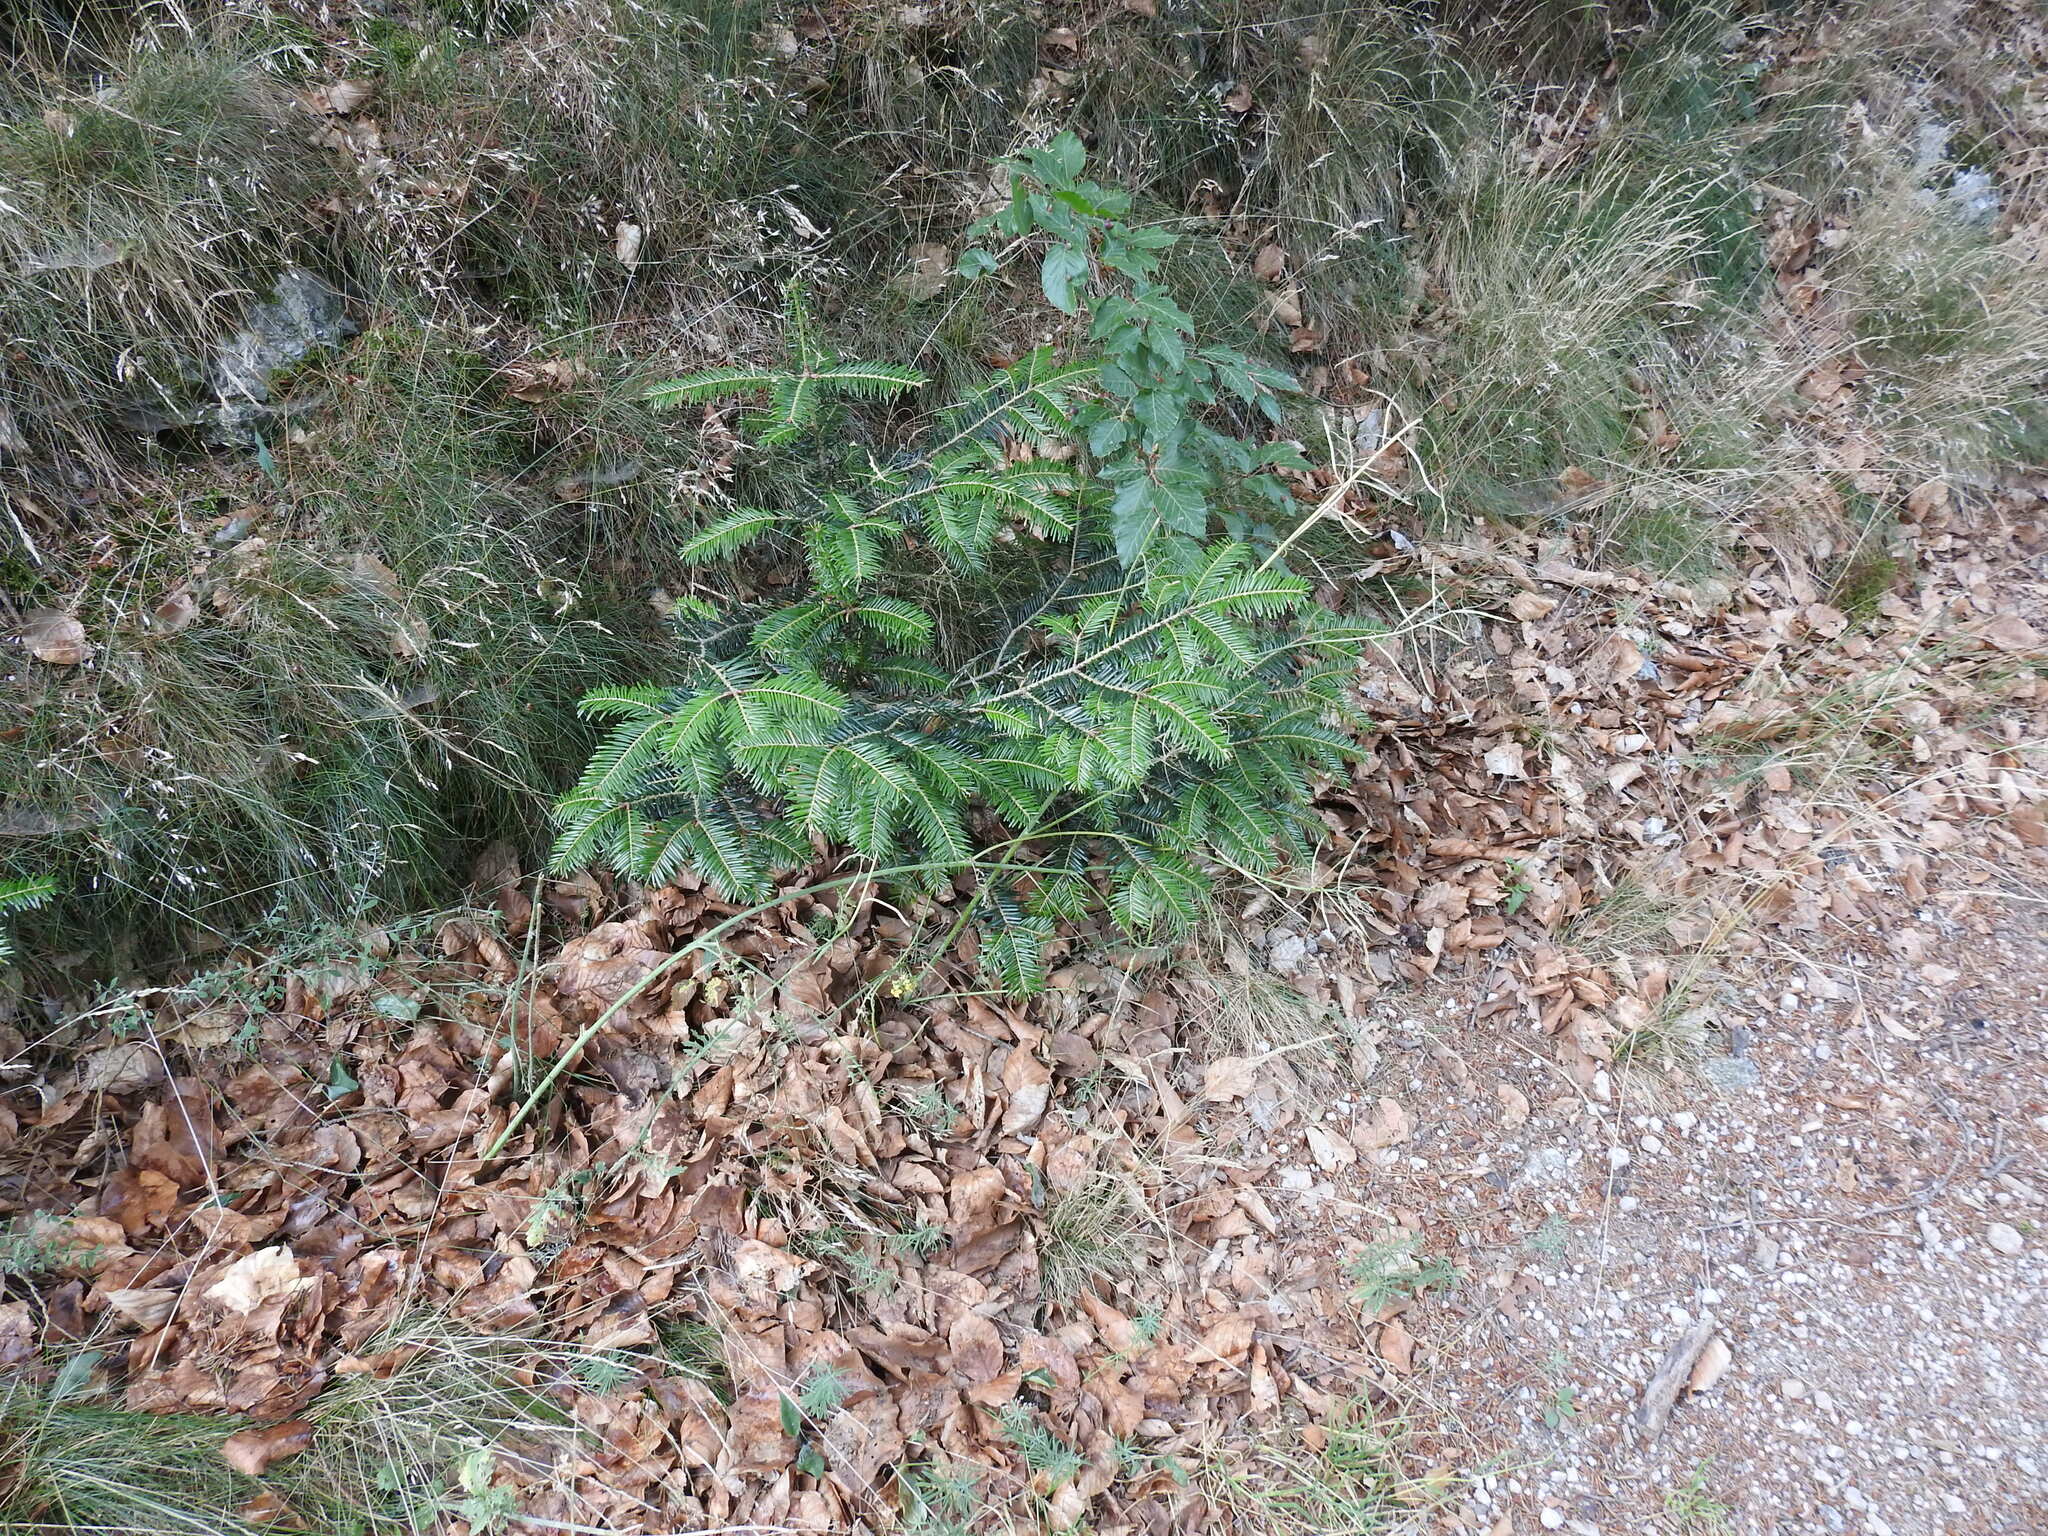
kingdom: Plantae
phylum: Tracheophyta
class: Magnoliopsida
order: Brassicales
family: Brassicaceae
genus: Coincya
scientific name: Coincya monensis
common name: Star-mustard
